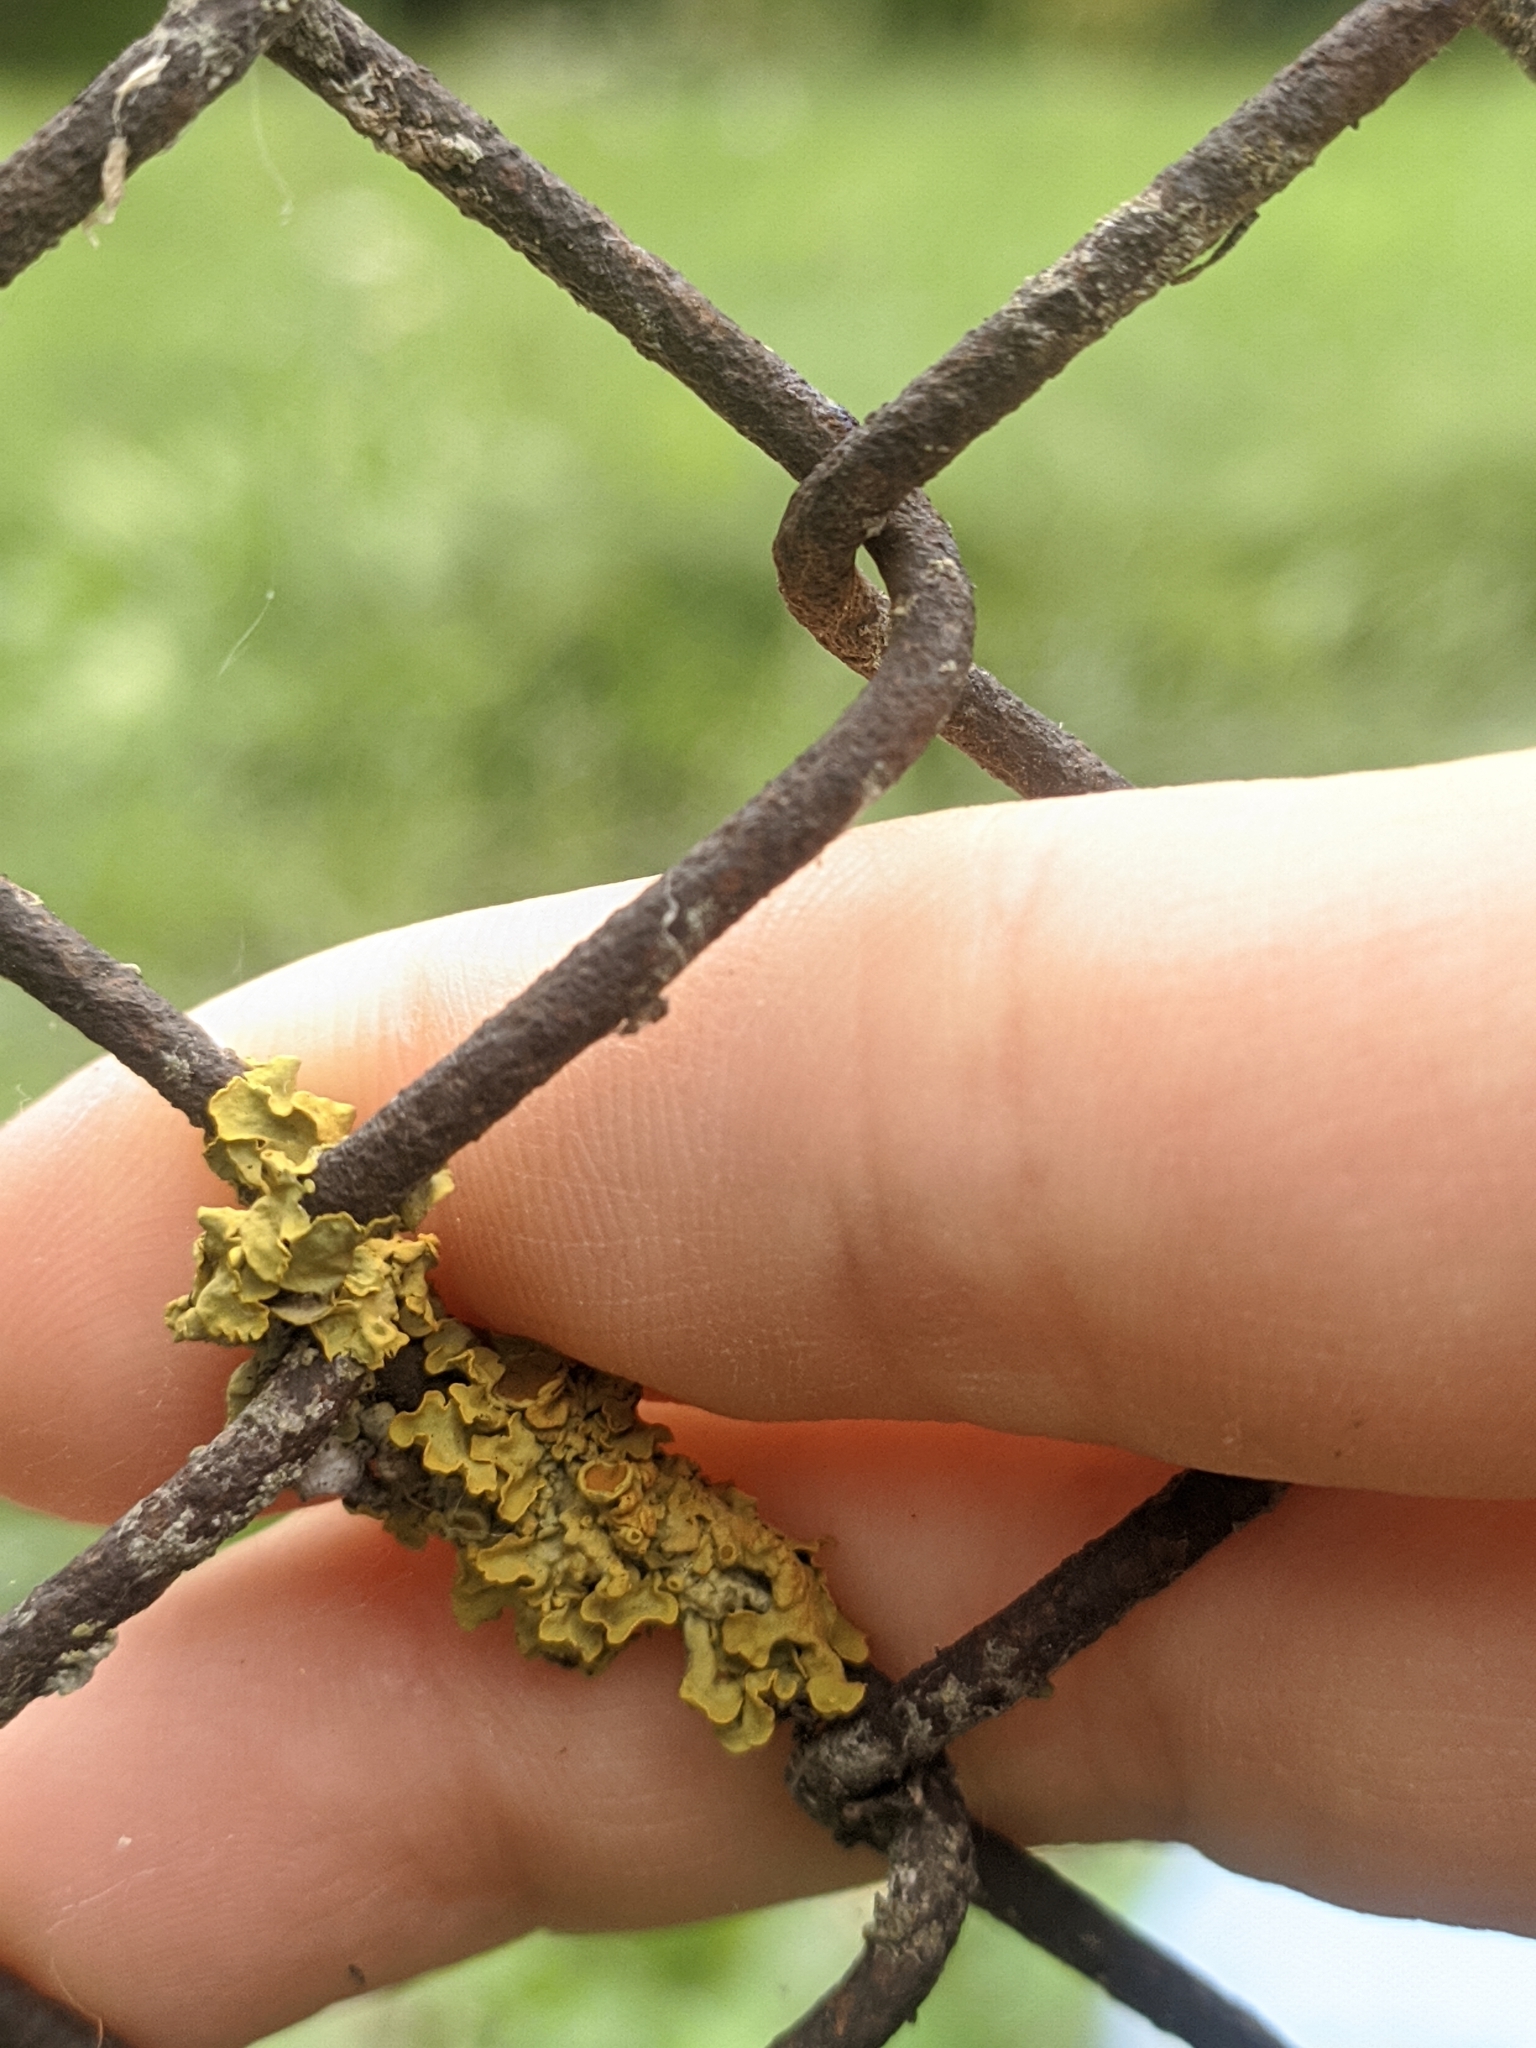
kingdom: Fungi
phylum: Ascomycota
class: Lecanoromycetes
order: Teloschistales
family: Teloschistaceae
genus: Xanthoria
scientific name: Xanthoria parietina
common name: Common orange lichen
